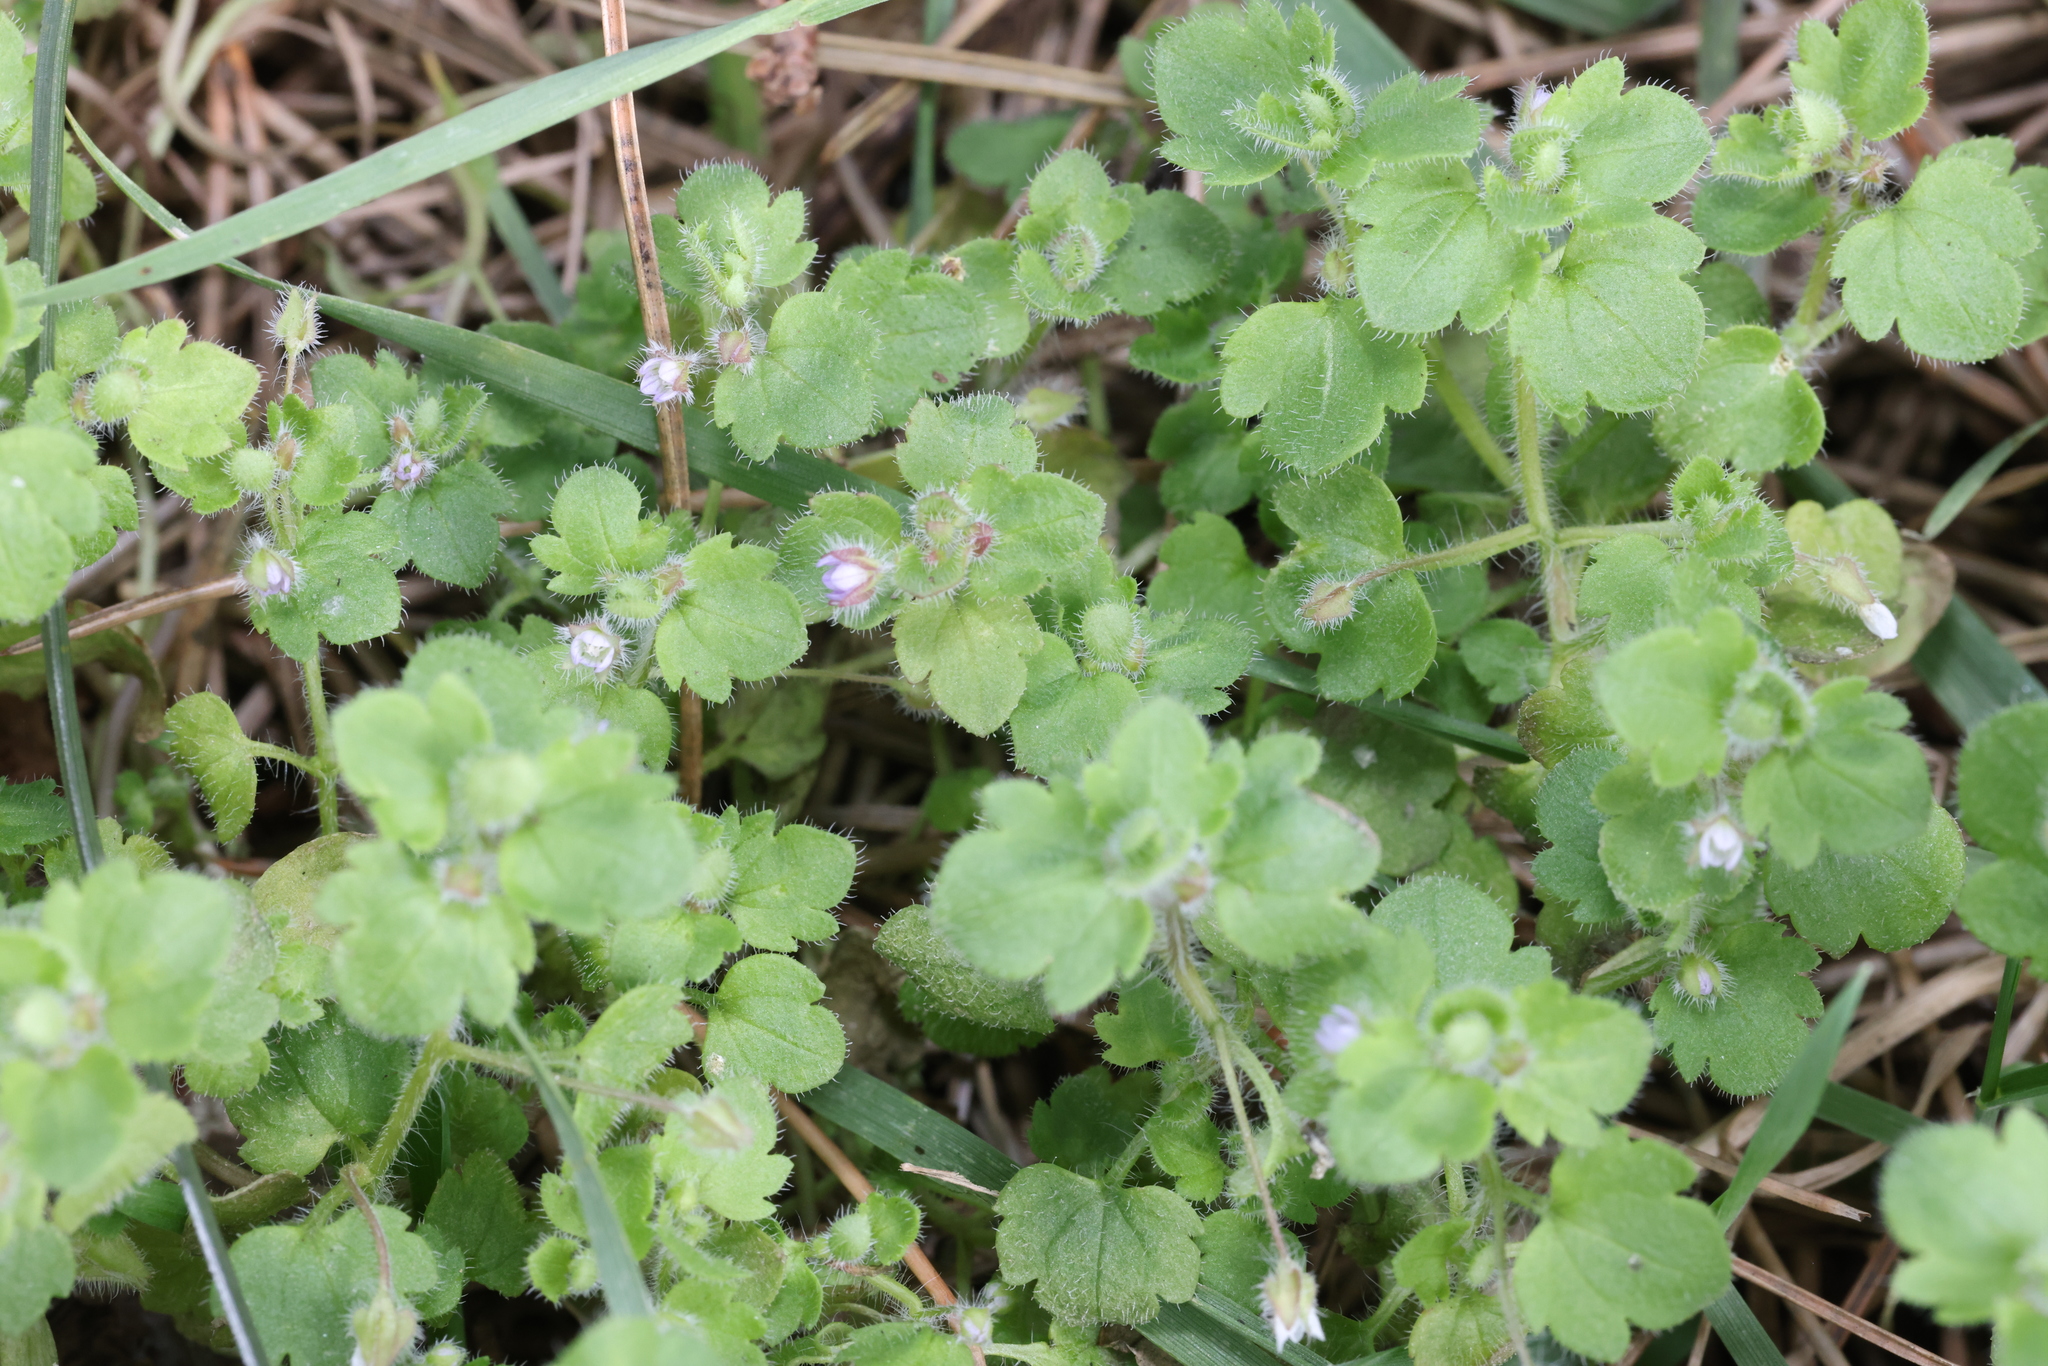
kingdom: Plantae
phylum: Tracheophyta
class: Magnoliopsida
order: Lamiales
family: Plantaginaceae
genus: Veronica
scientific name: Veronica sublobata
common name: False ivy-leaved speedwell
